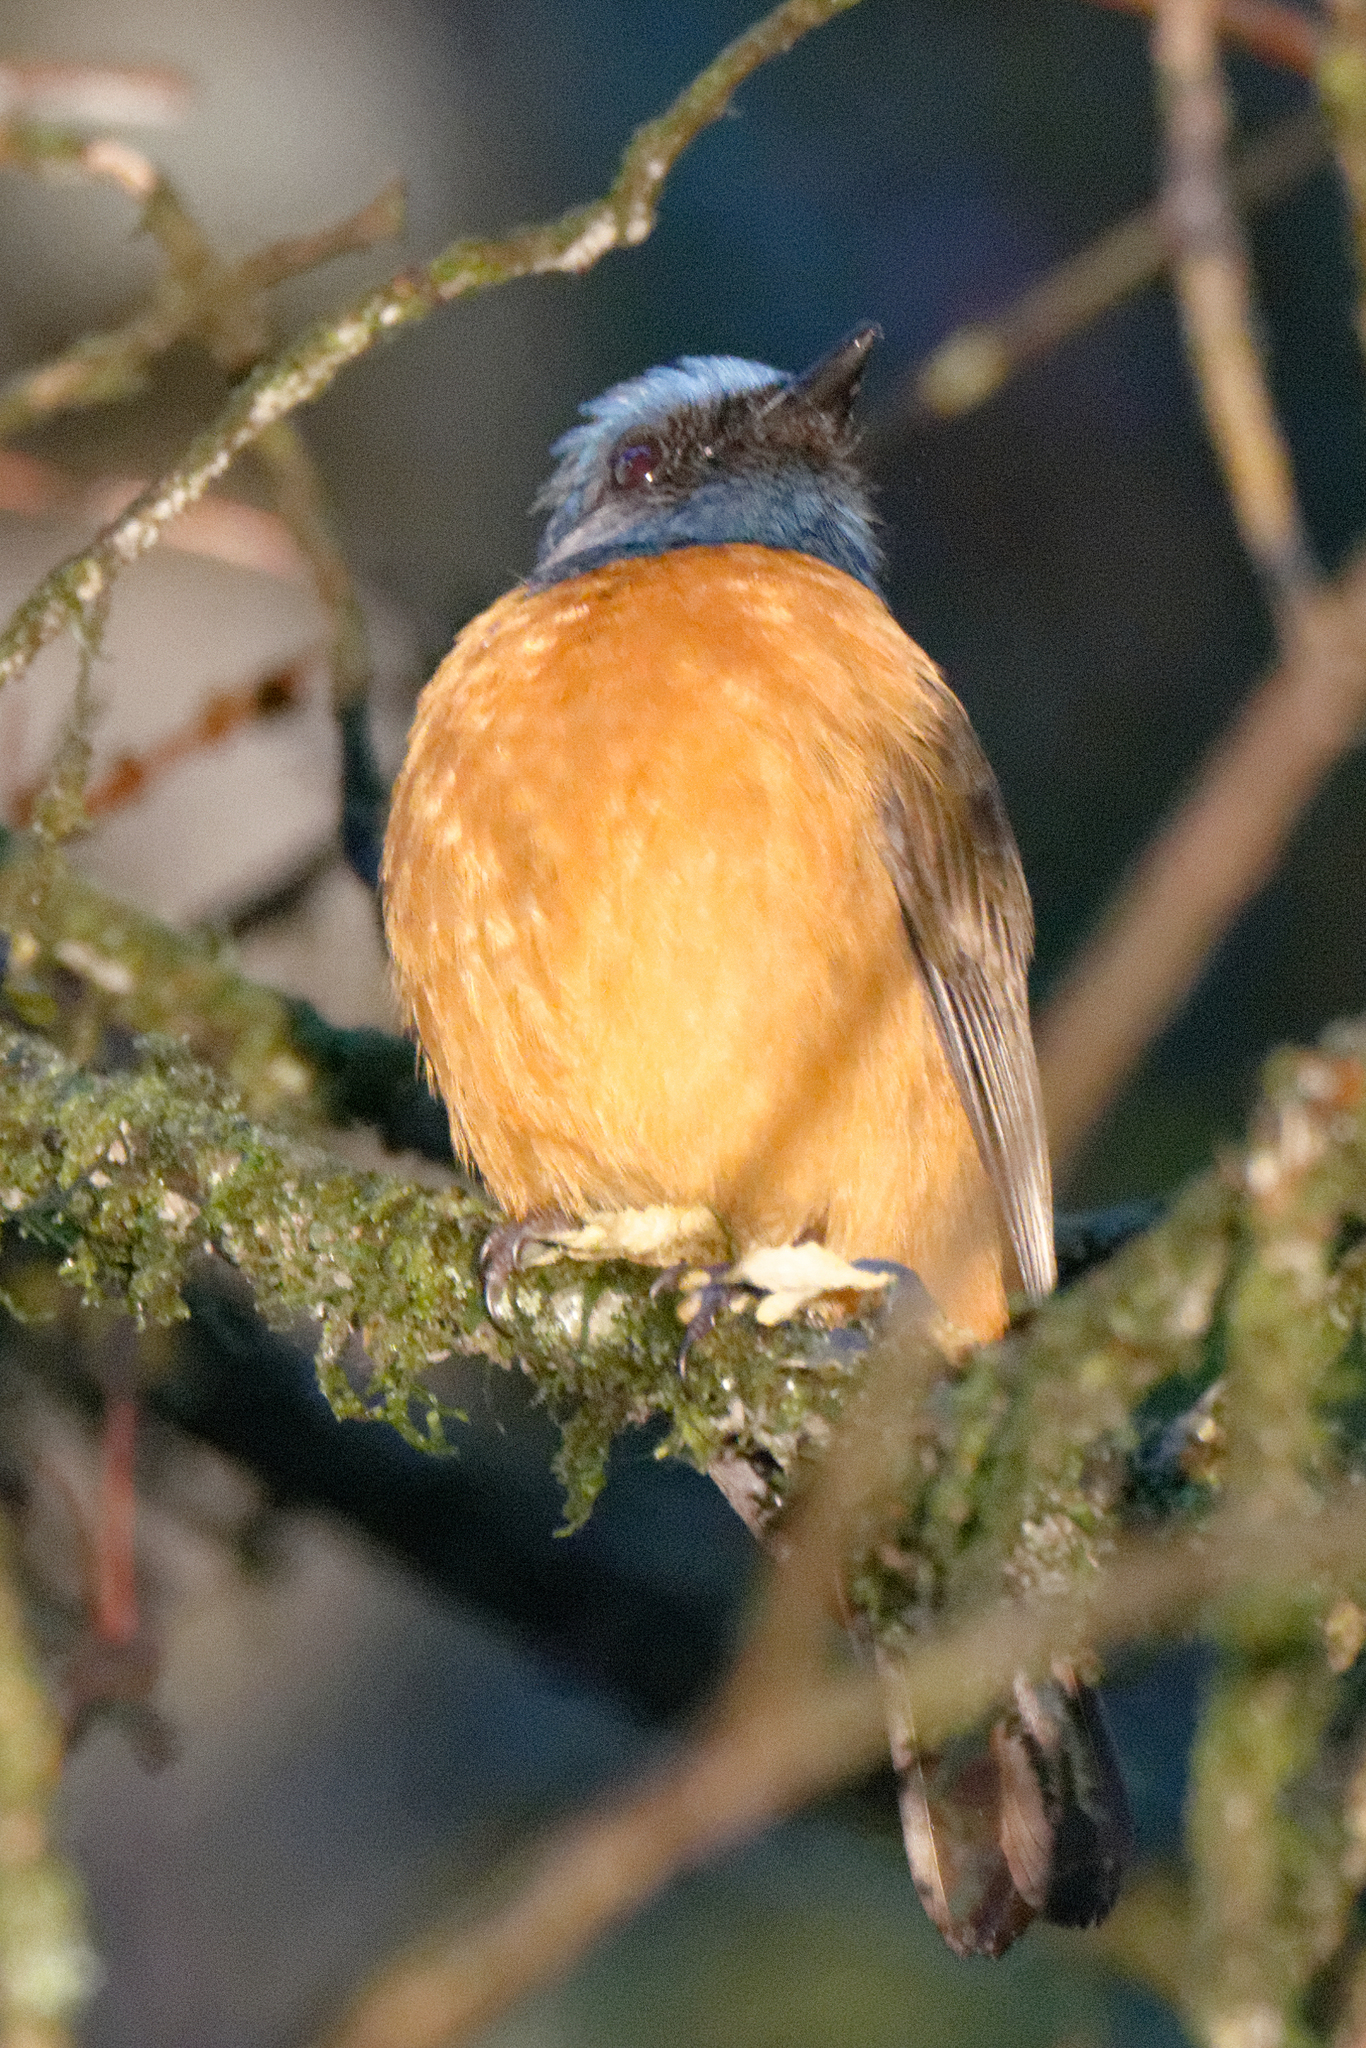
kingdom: Animalia
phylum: Chordata
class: Aves
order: Passeriformes
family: Muscicapidae
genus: Cyornis
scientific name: Cyornis hoevelli
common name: Blue-fronted blue flycatcher
